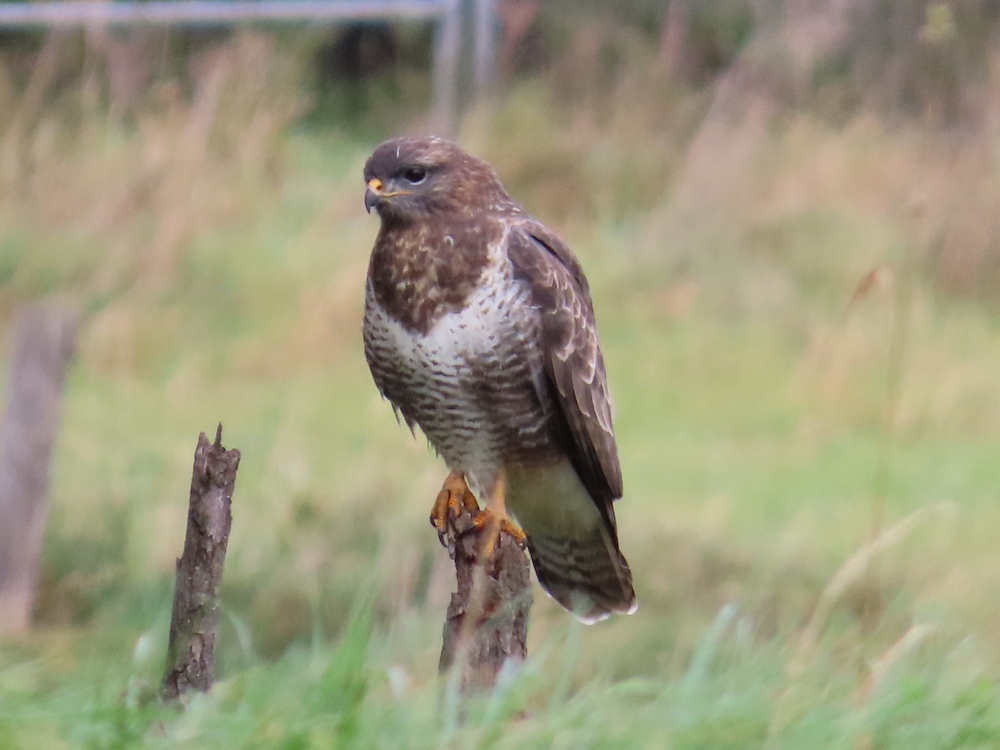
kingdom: Animalia
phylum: Chordata
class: Aves
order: Accipitriformes
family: Accipitridae
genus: Buteo
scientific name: Buteo buteo
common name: Common buzzard
